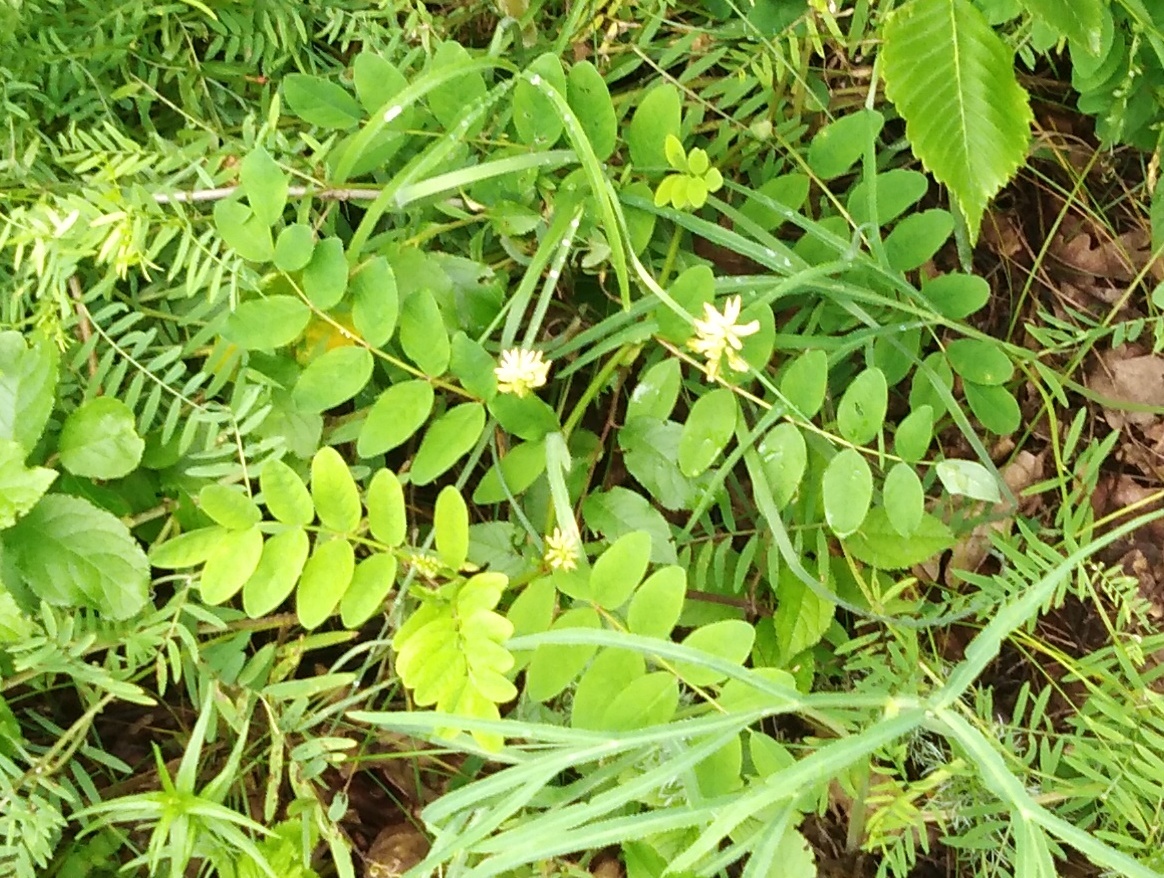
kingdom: Plantae
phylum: Tracheophyta
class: Magnoliopsida
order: Fabales
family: Fabaceae
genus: Astragalus
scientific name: Astragalus glycyphyllos
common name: Wild liquorice
